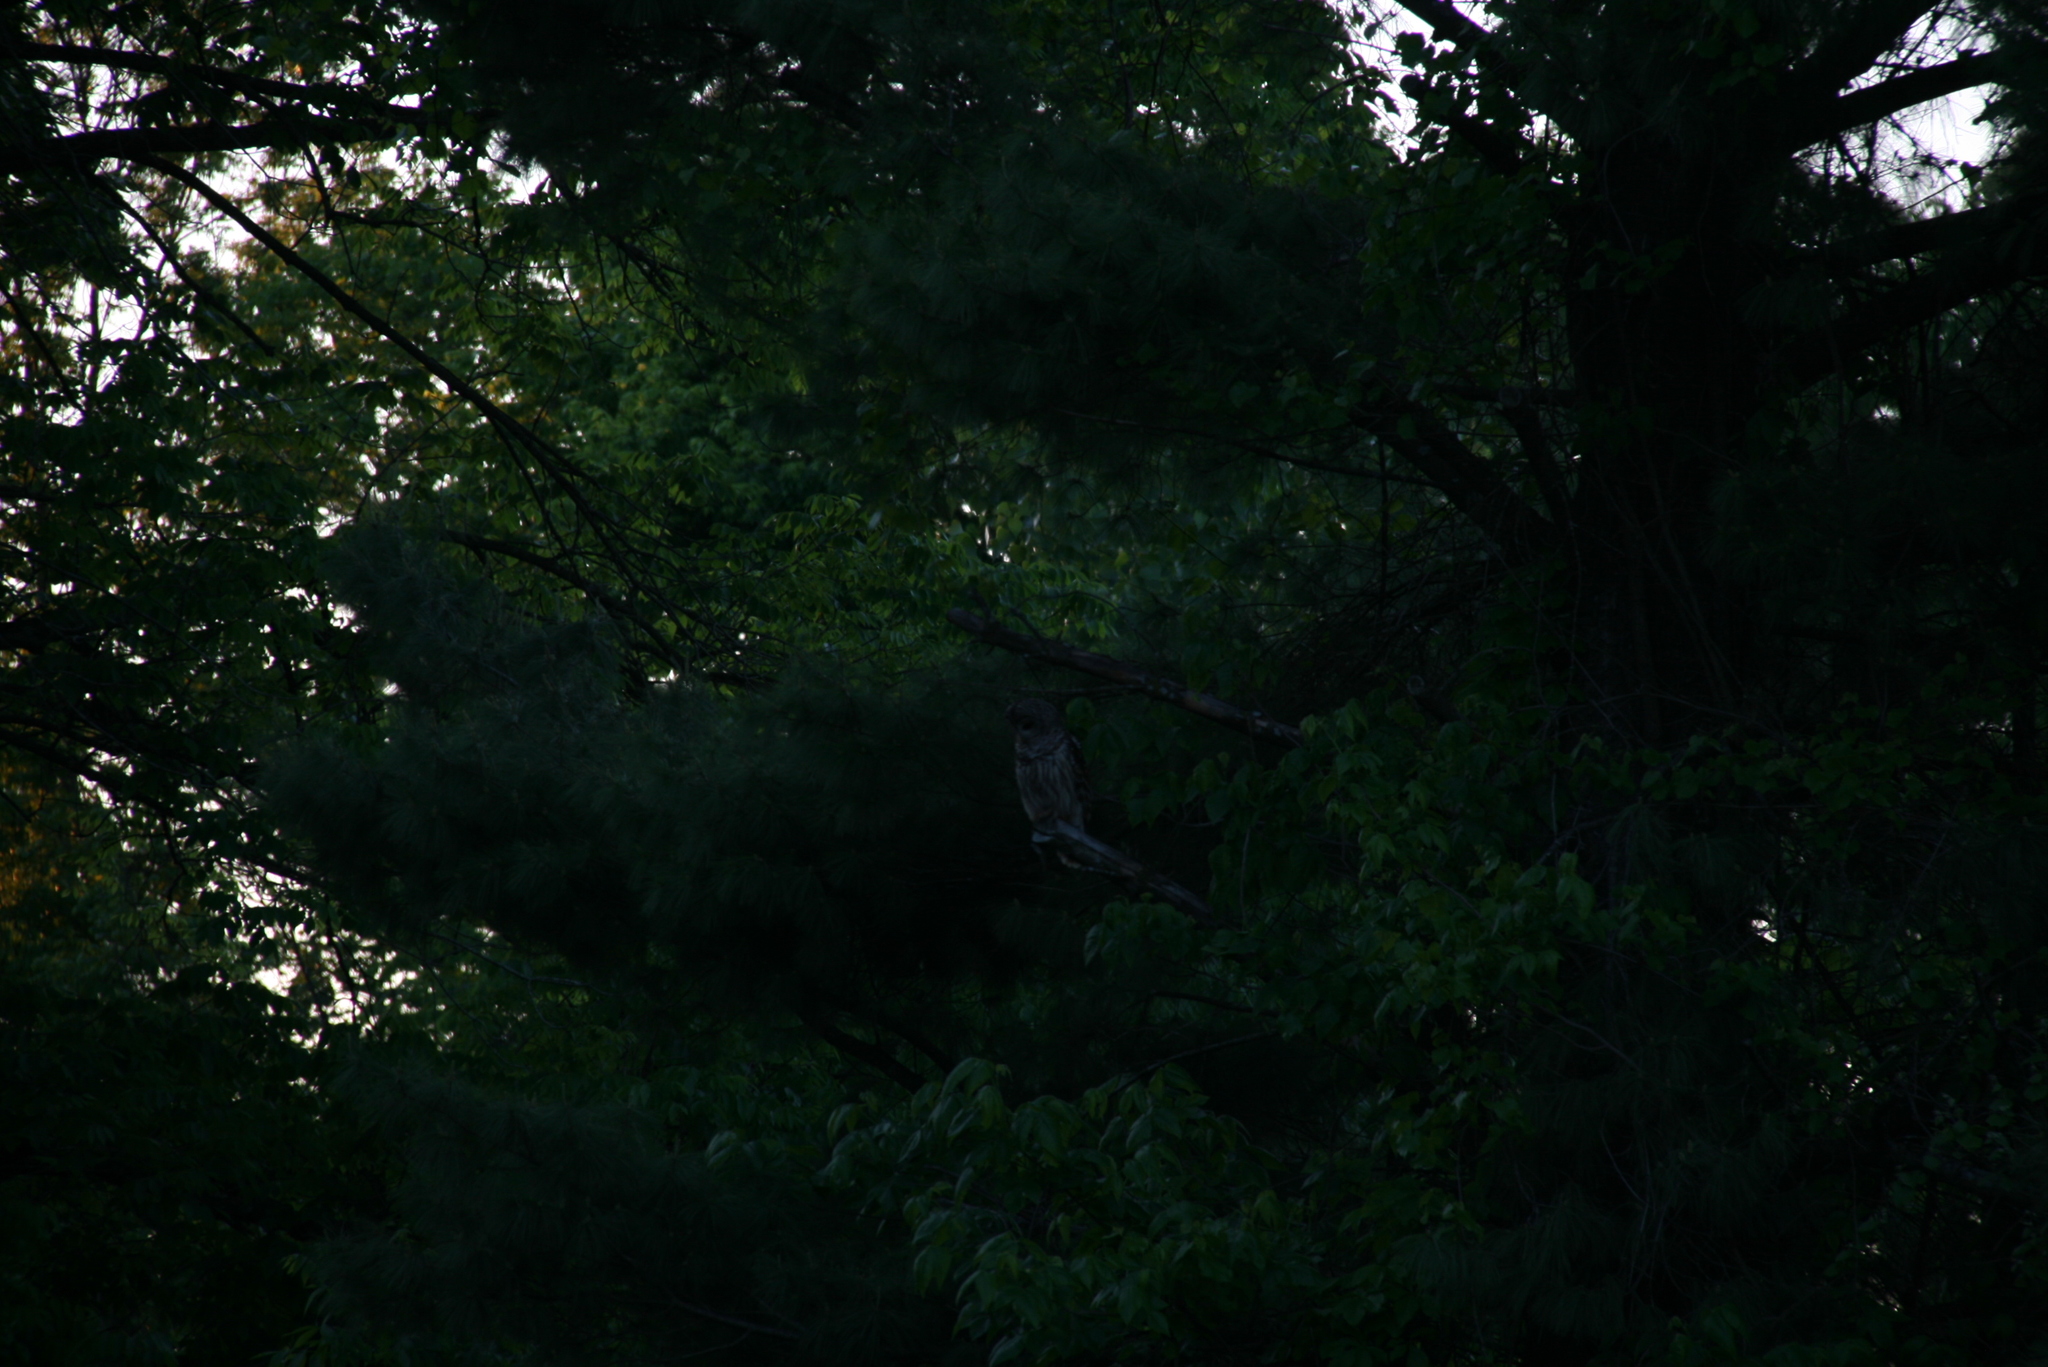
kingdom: Animalia
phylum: Chordata
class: Aves
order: Strigiformes
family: Strigidae
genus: Strix
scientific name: Strix varia
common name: Barred owl
